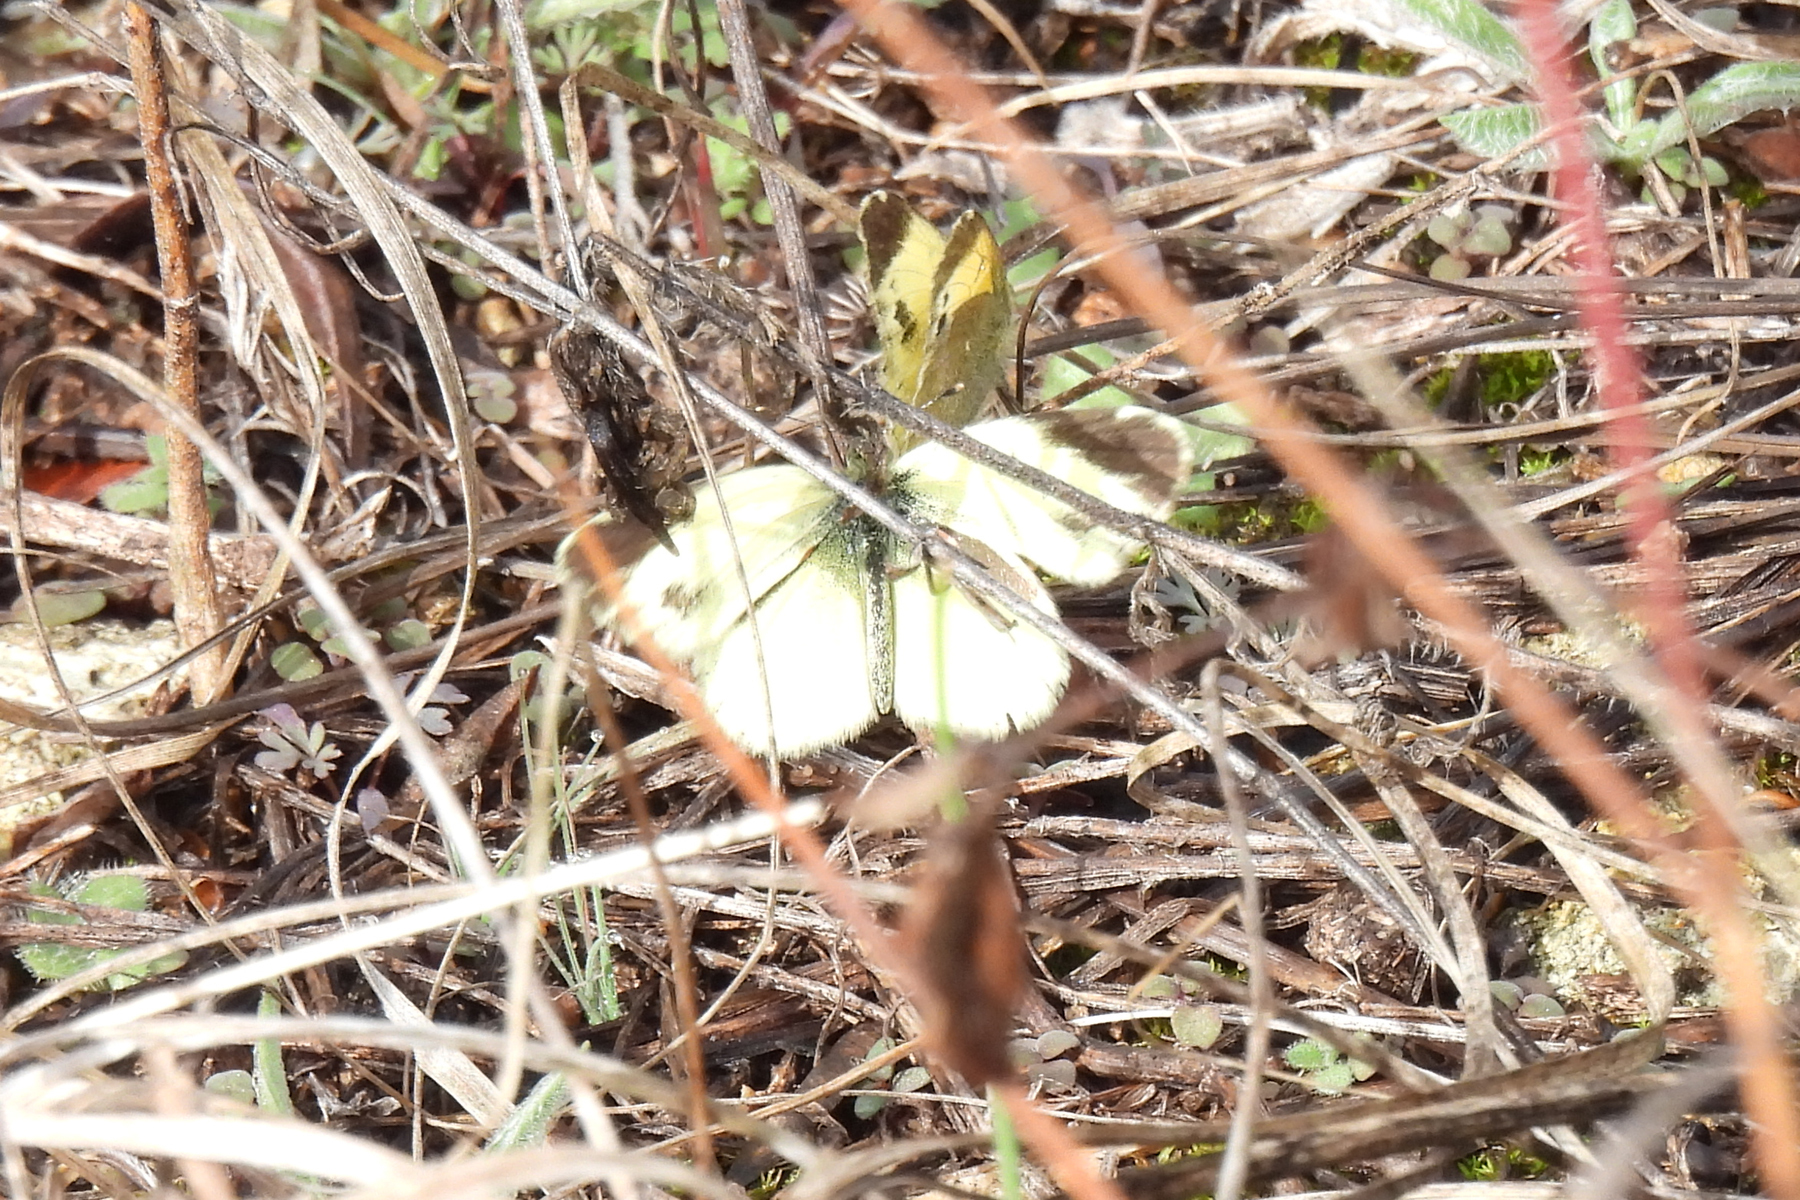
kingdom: Animalia
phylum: Arthropoda
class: Insecta
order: Lepidoptera
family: Pieridae
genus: Nathalis
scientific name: Nathalis iole
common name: Dainty sulphur
